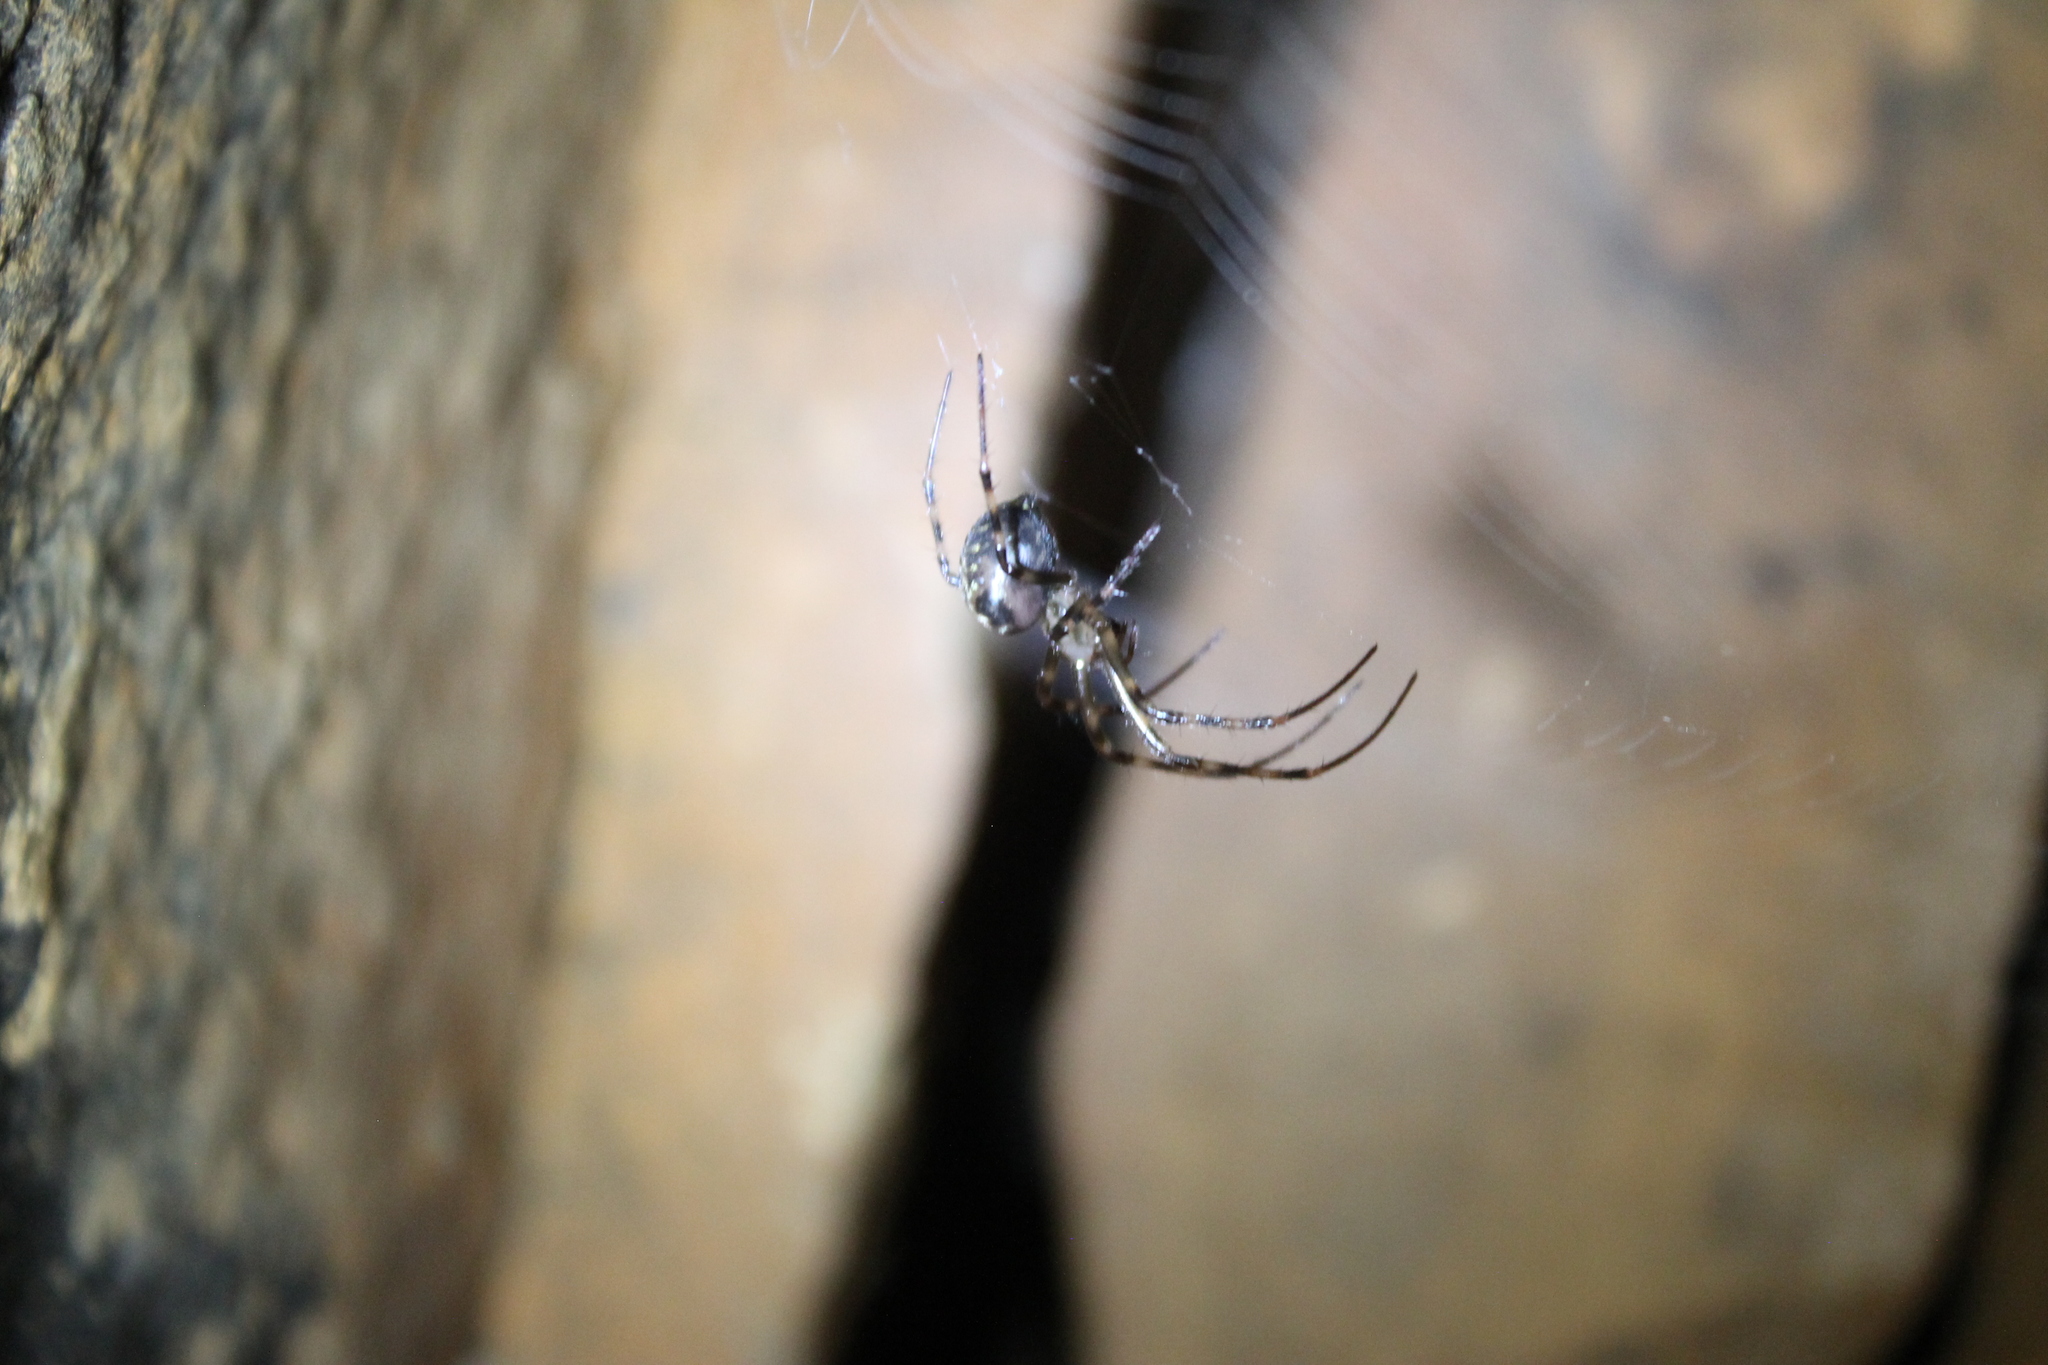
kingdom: Animalia
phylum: Arthropoda
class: Arachnida
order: Araneae
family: Tetragnathidae
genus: Meta
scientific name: Meta ovalis
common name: Eastern cave long-jawed spider
